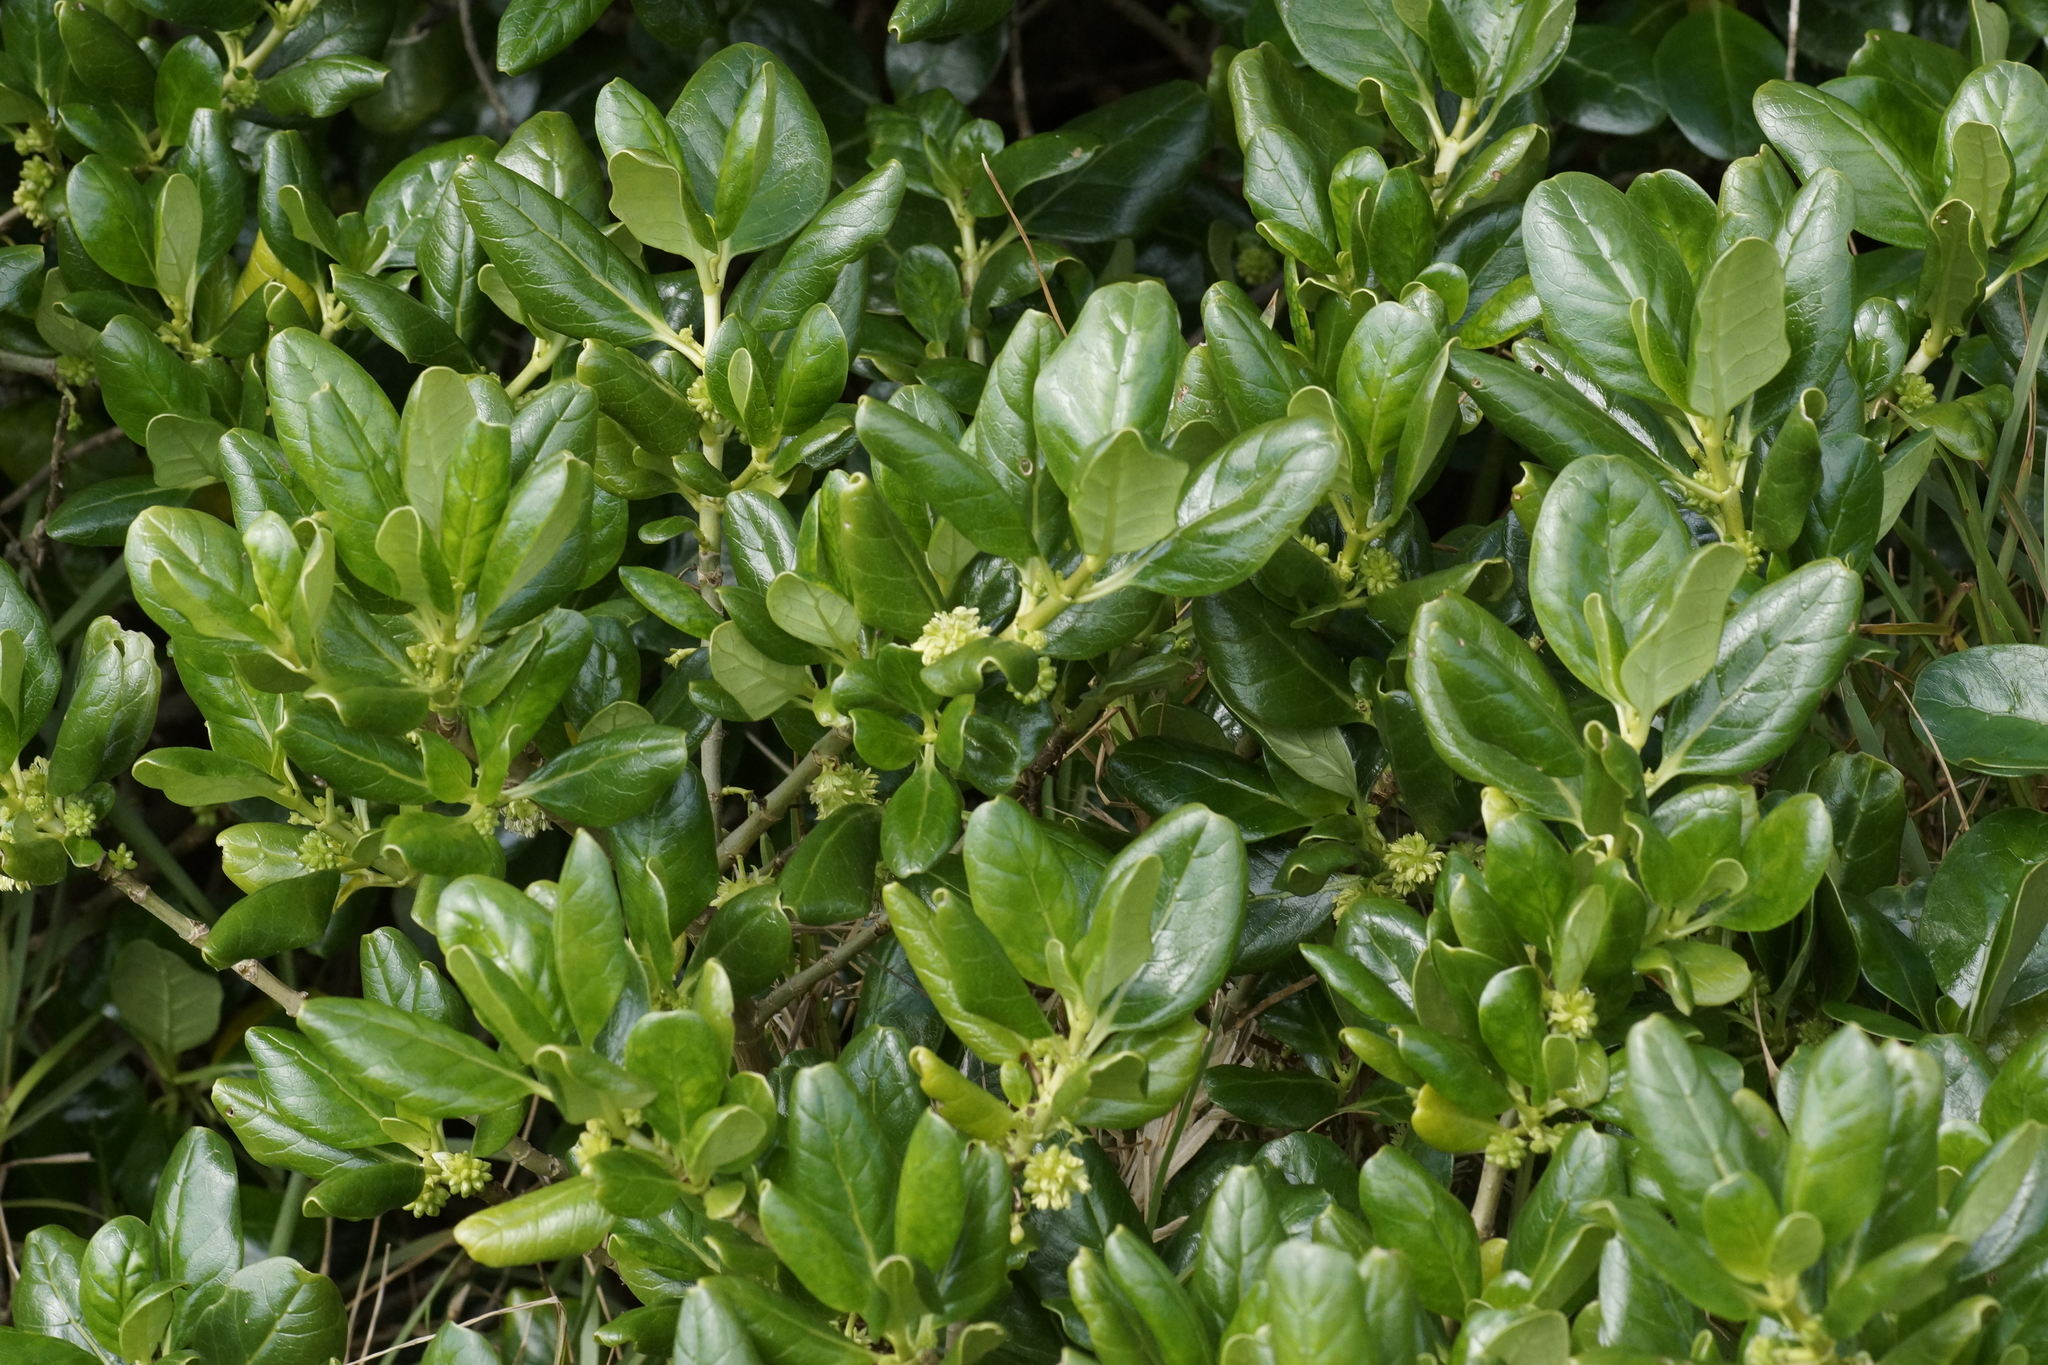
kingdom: Plantae
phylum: Tracheophyta
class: Magnoliopsida
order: Gentianales
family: Rubiaceae
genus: Coprosma
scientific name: Coprosma repens
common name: Tree bedstraw
